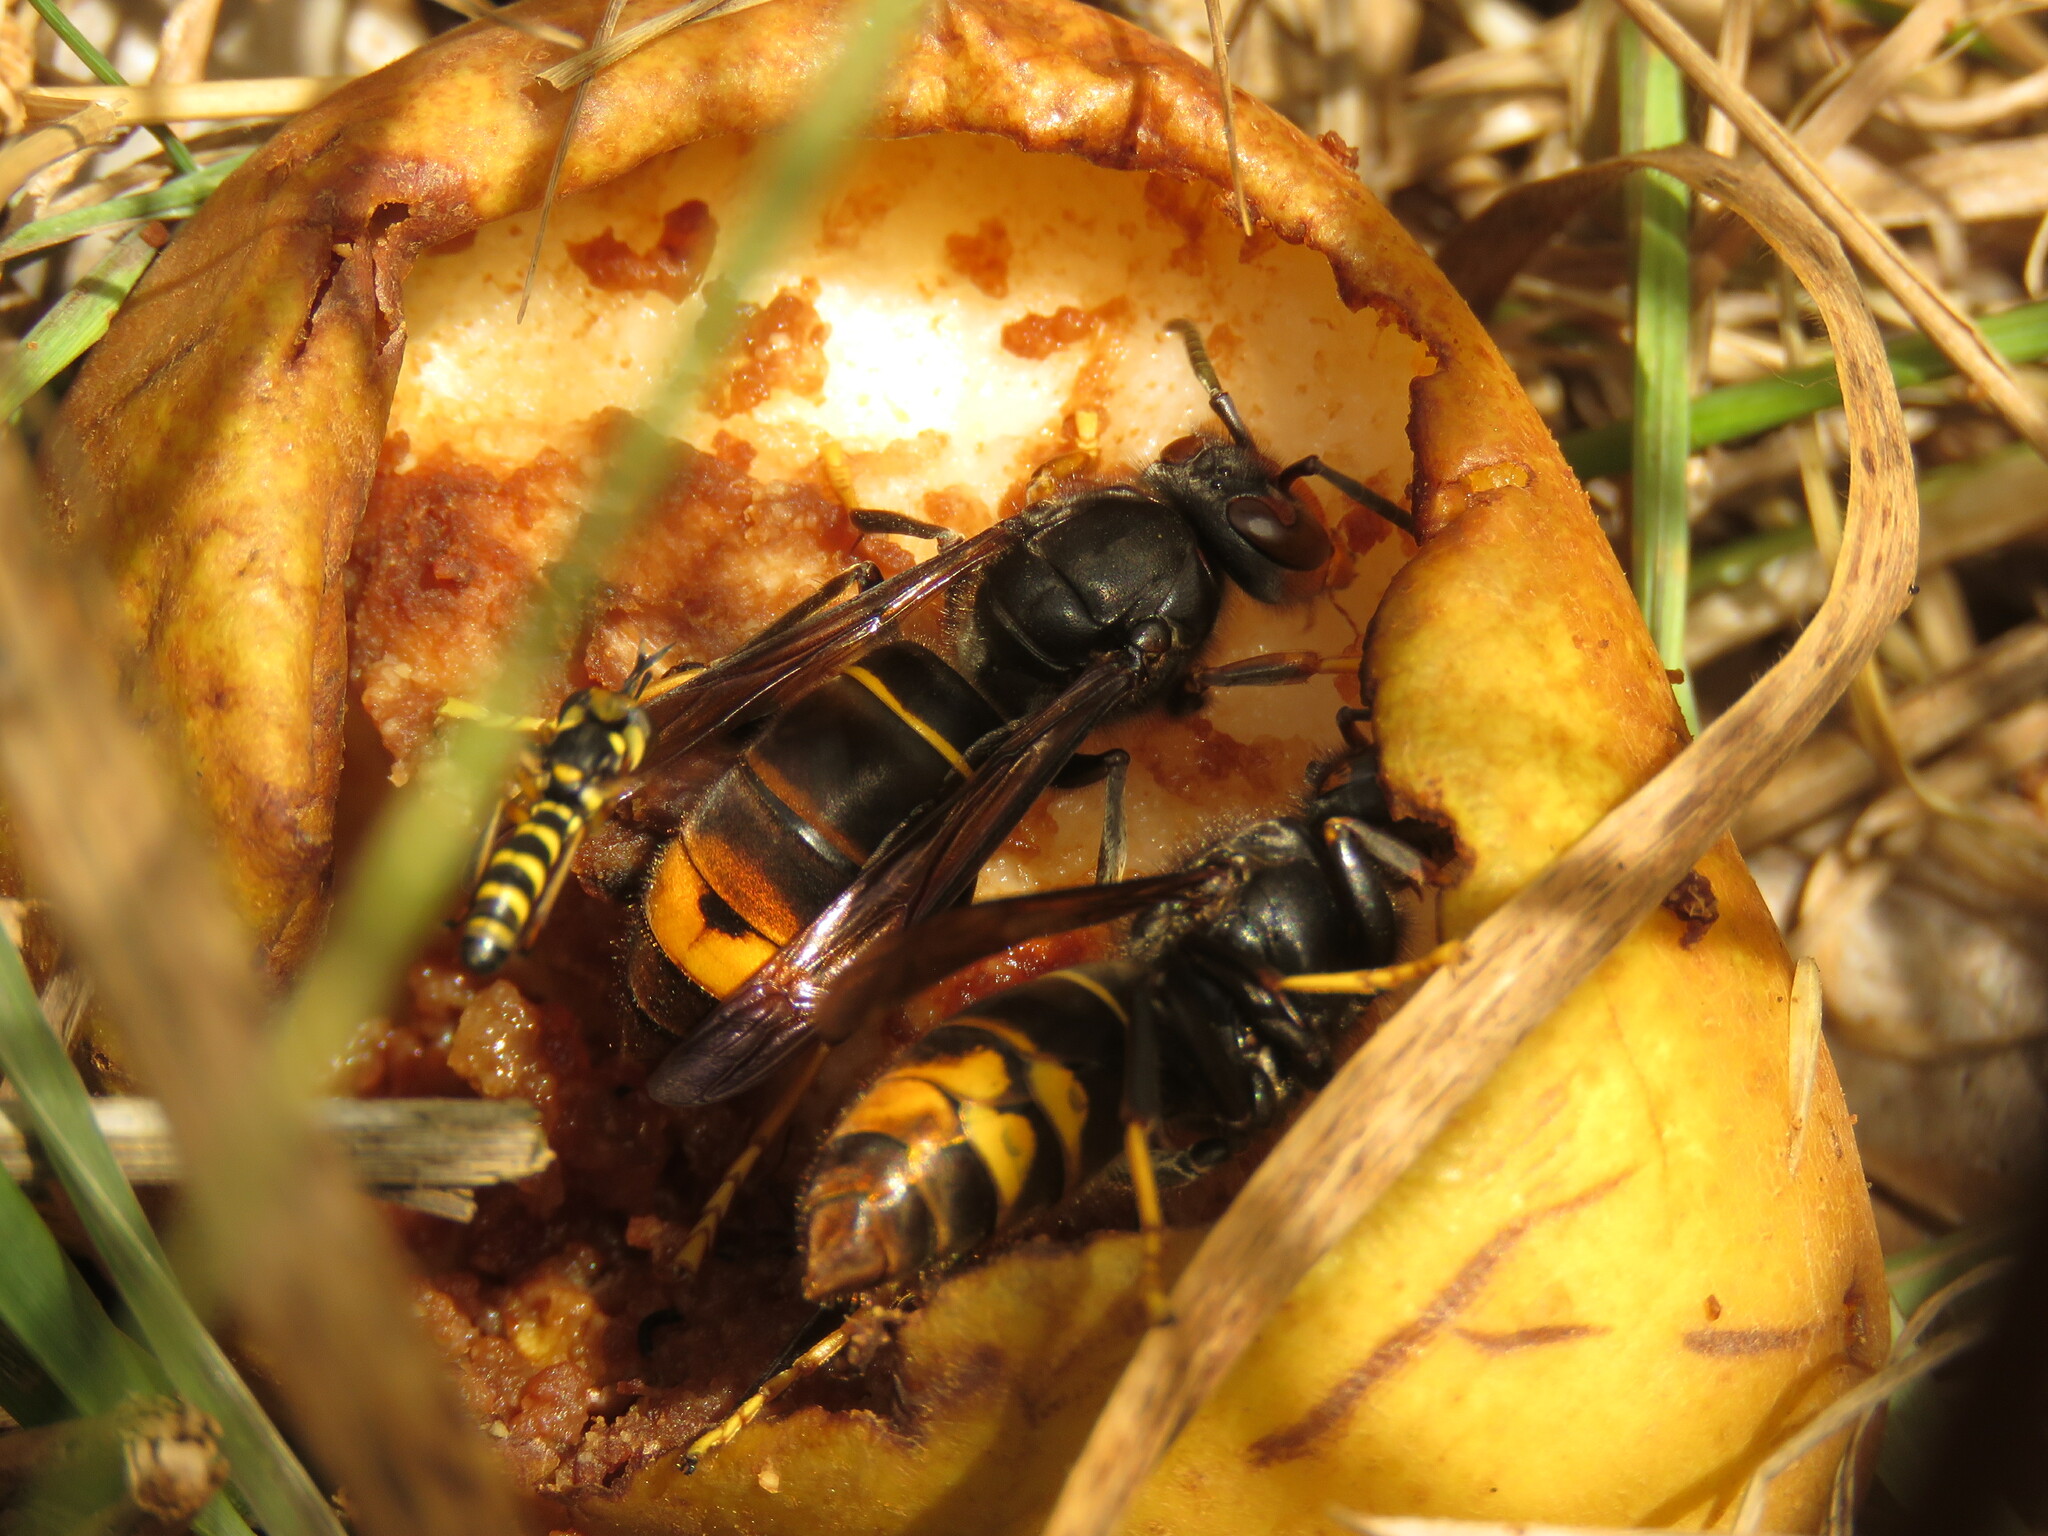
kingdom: Animalia
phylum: Arthropoda
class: Insecta
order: Hymenoptera
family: Vespidae
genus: Vespa
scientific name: Vespa velutina
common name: Asian hornet
